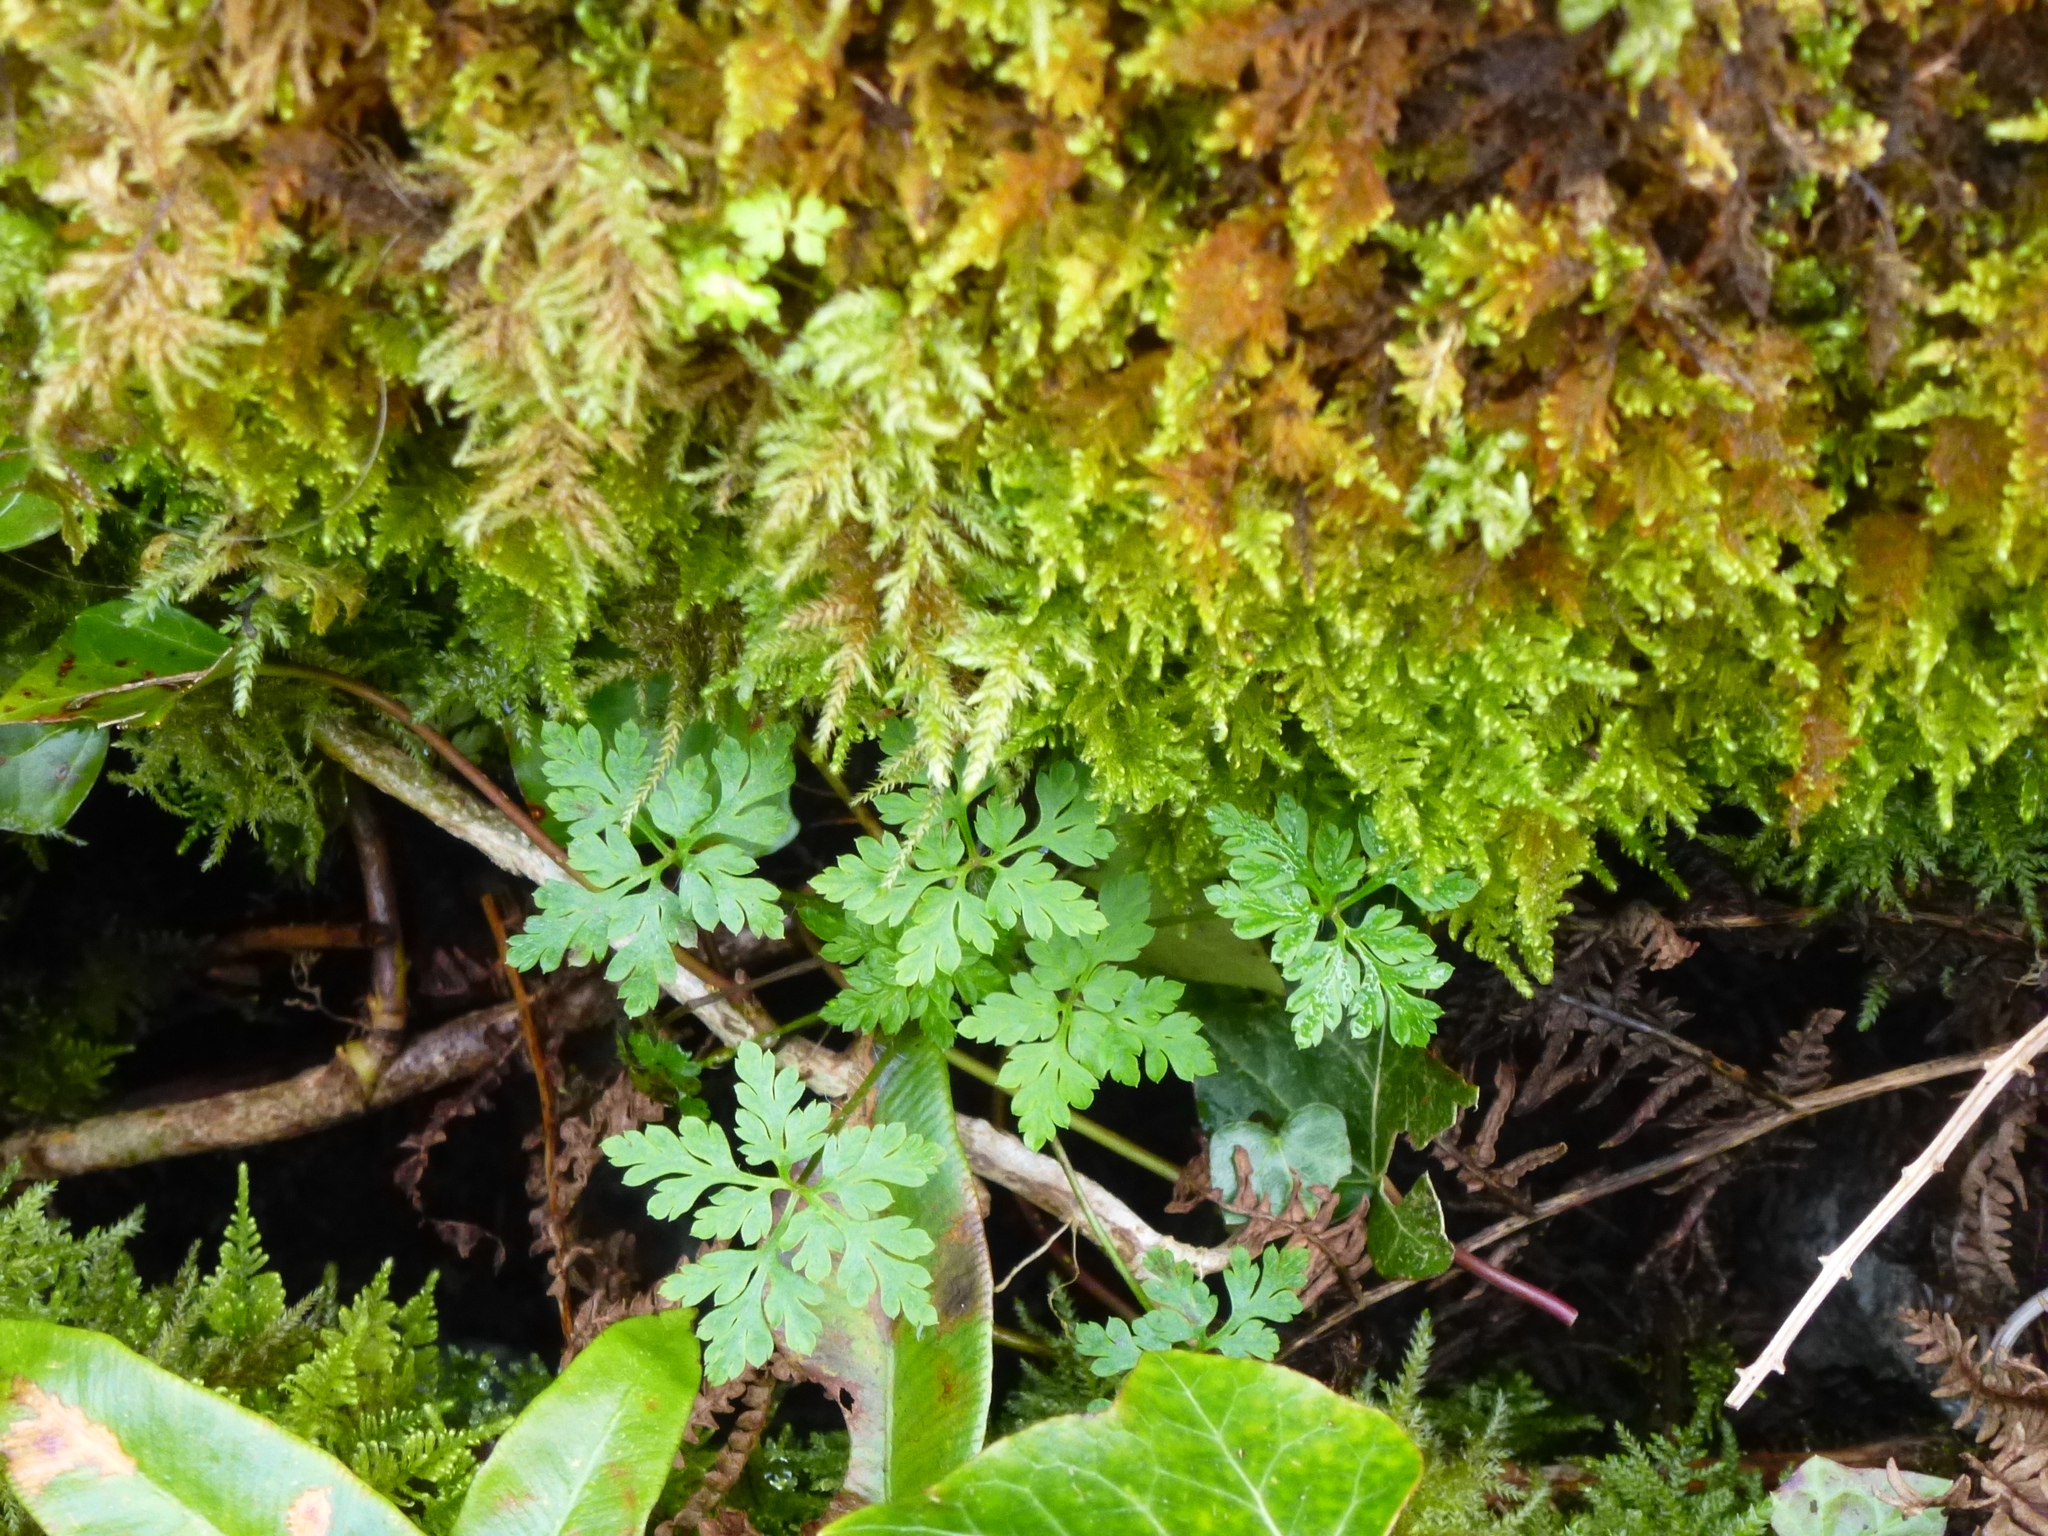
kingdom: Plantae
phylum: Tracheophyta
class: Magnoliopsida
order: Geraniales
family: Geraniaceae
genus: Geranium
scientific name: Geranium robertianum
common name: Herb-robert
